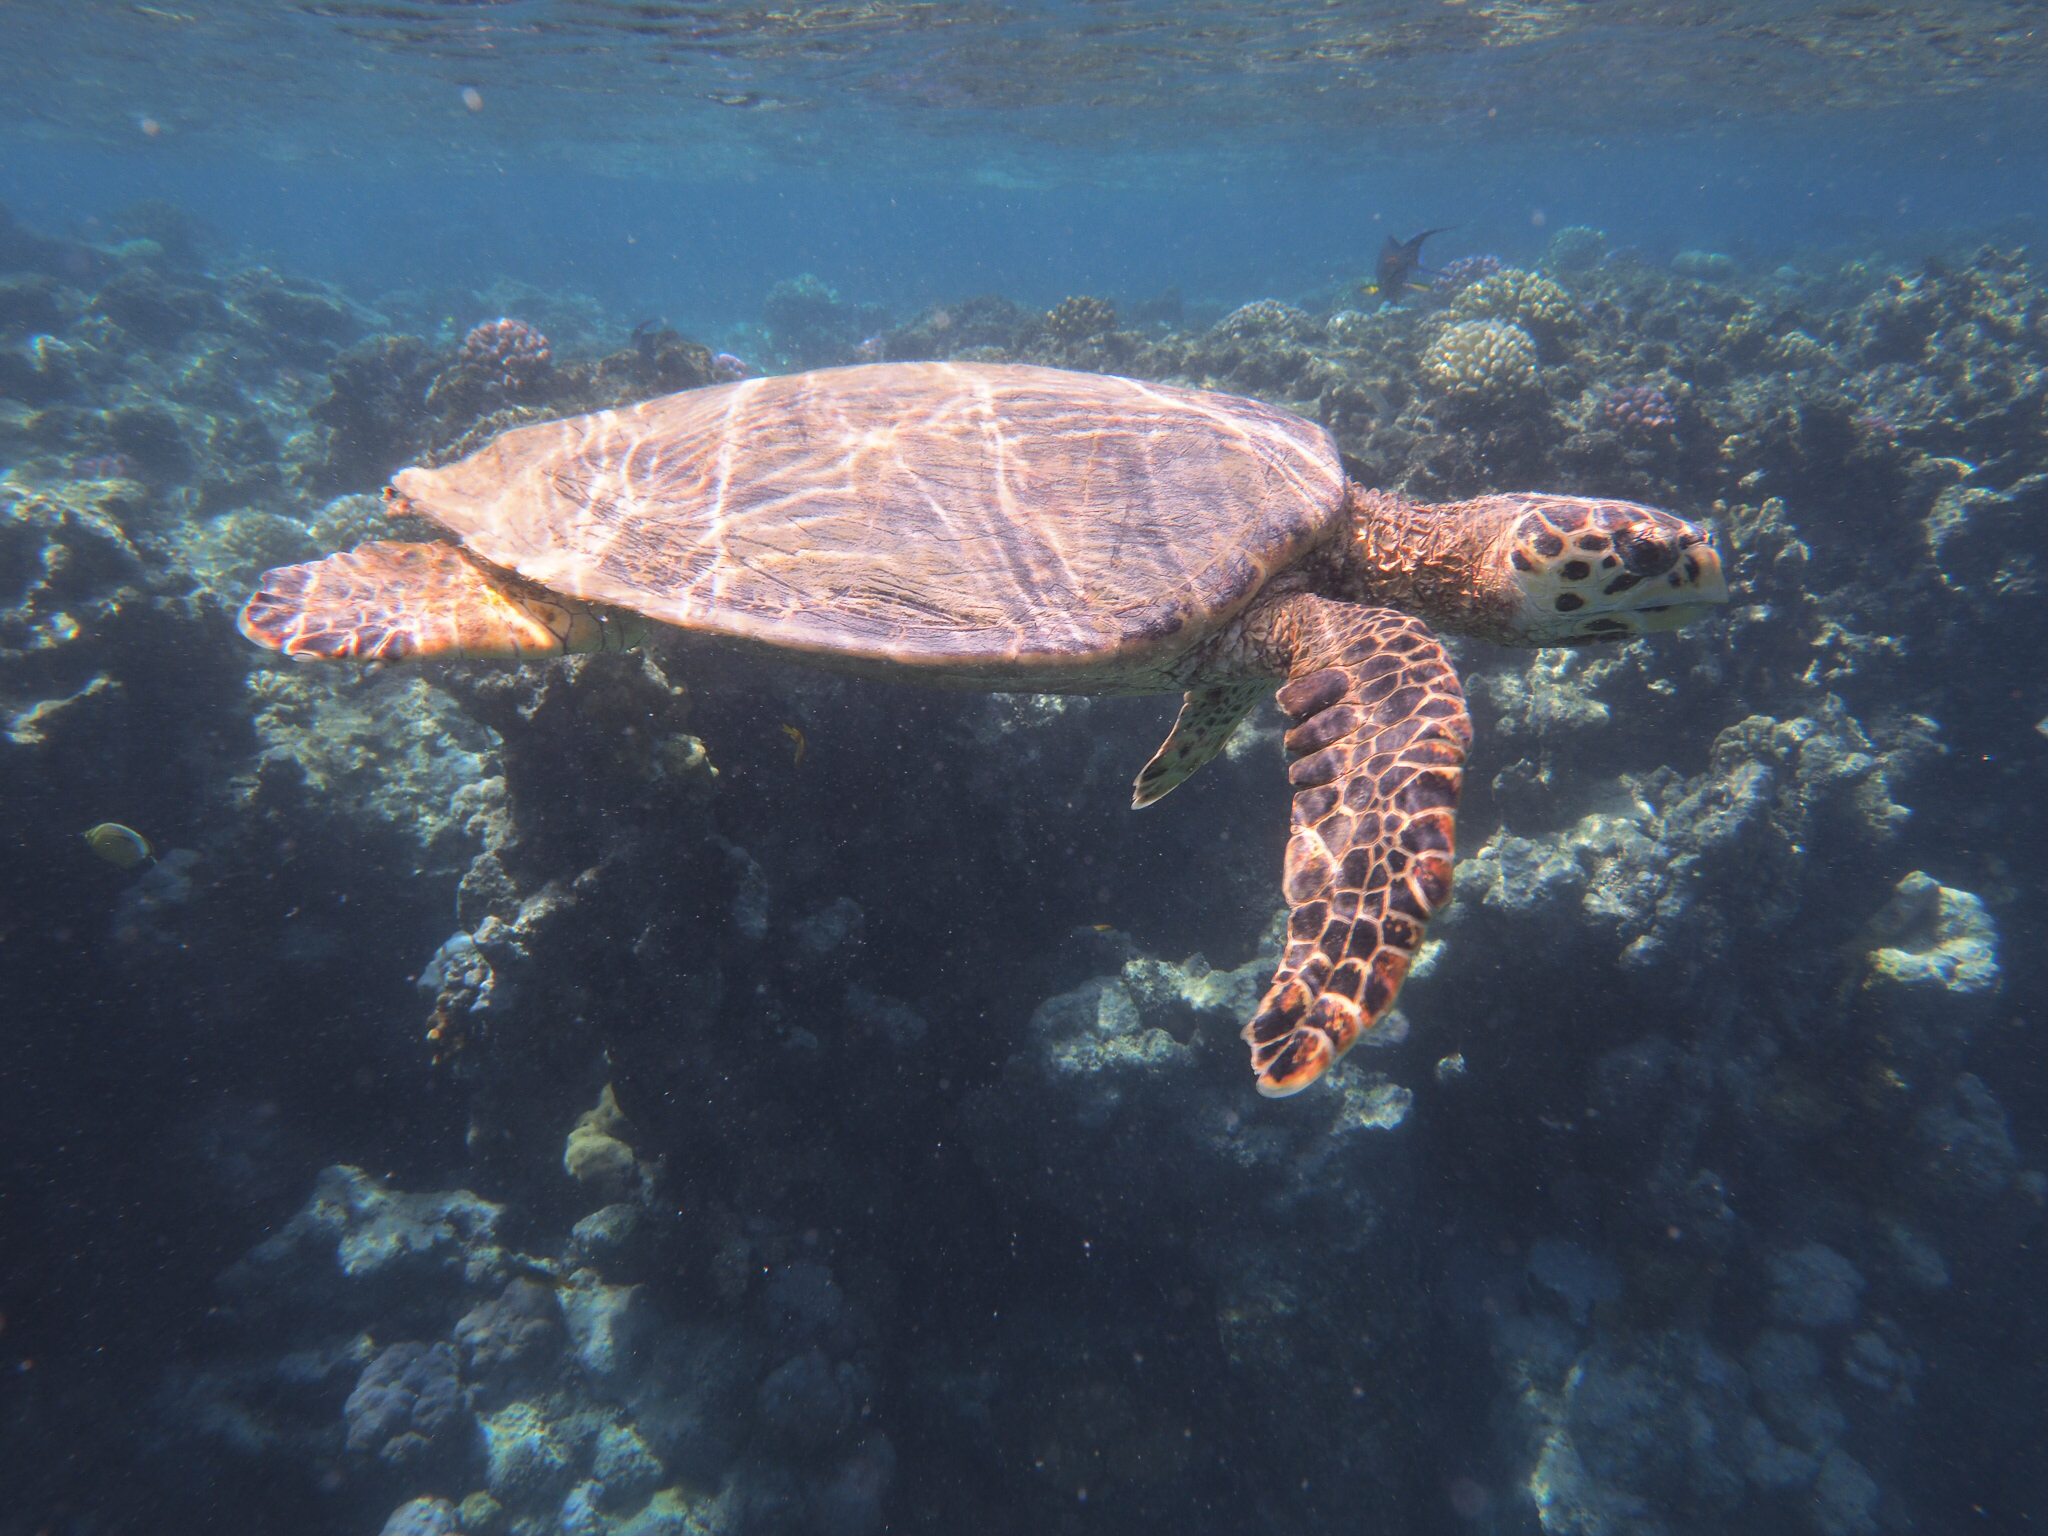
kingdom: Animalia
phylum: Chordata
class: Testudines
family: Cheloniidae
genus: Eretmochelys
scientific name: Eretmochelys imbricata
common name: Hawksbill turtle
